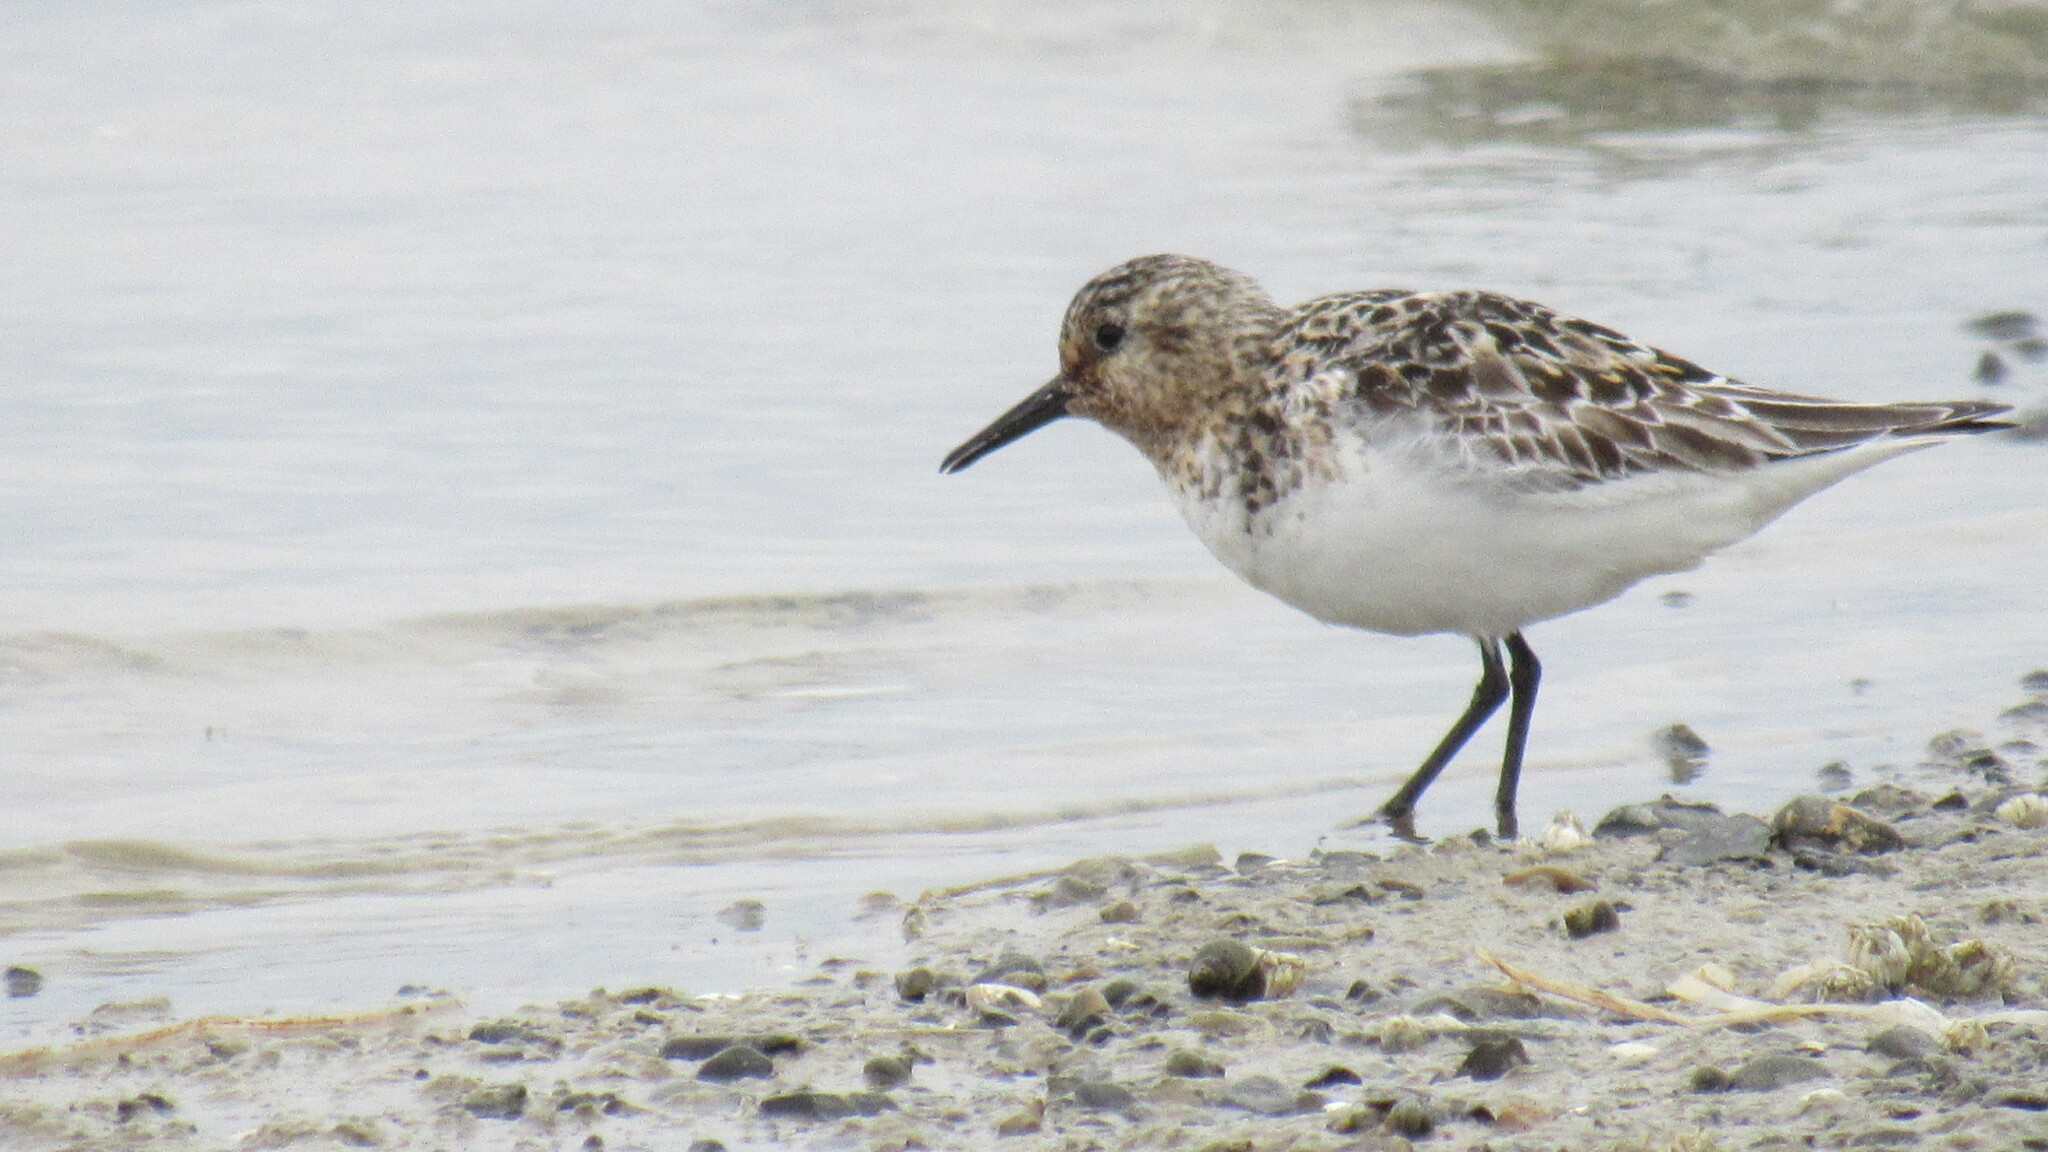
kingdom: Animalia
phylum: Chordata
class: Aves
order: Charadriiformes
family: Scolopacidae
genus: Calidris
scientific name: Calidris alba
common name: Sanderling
